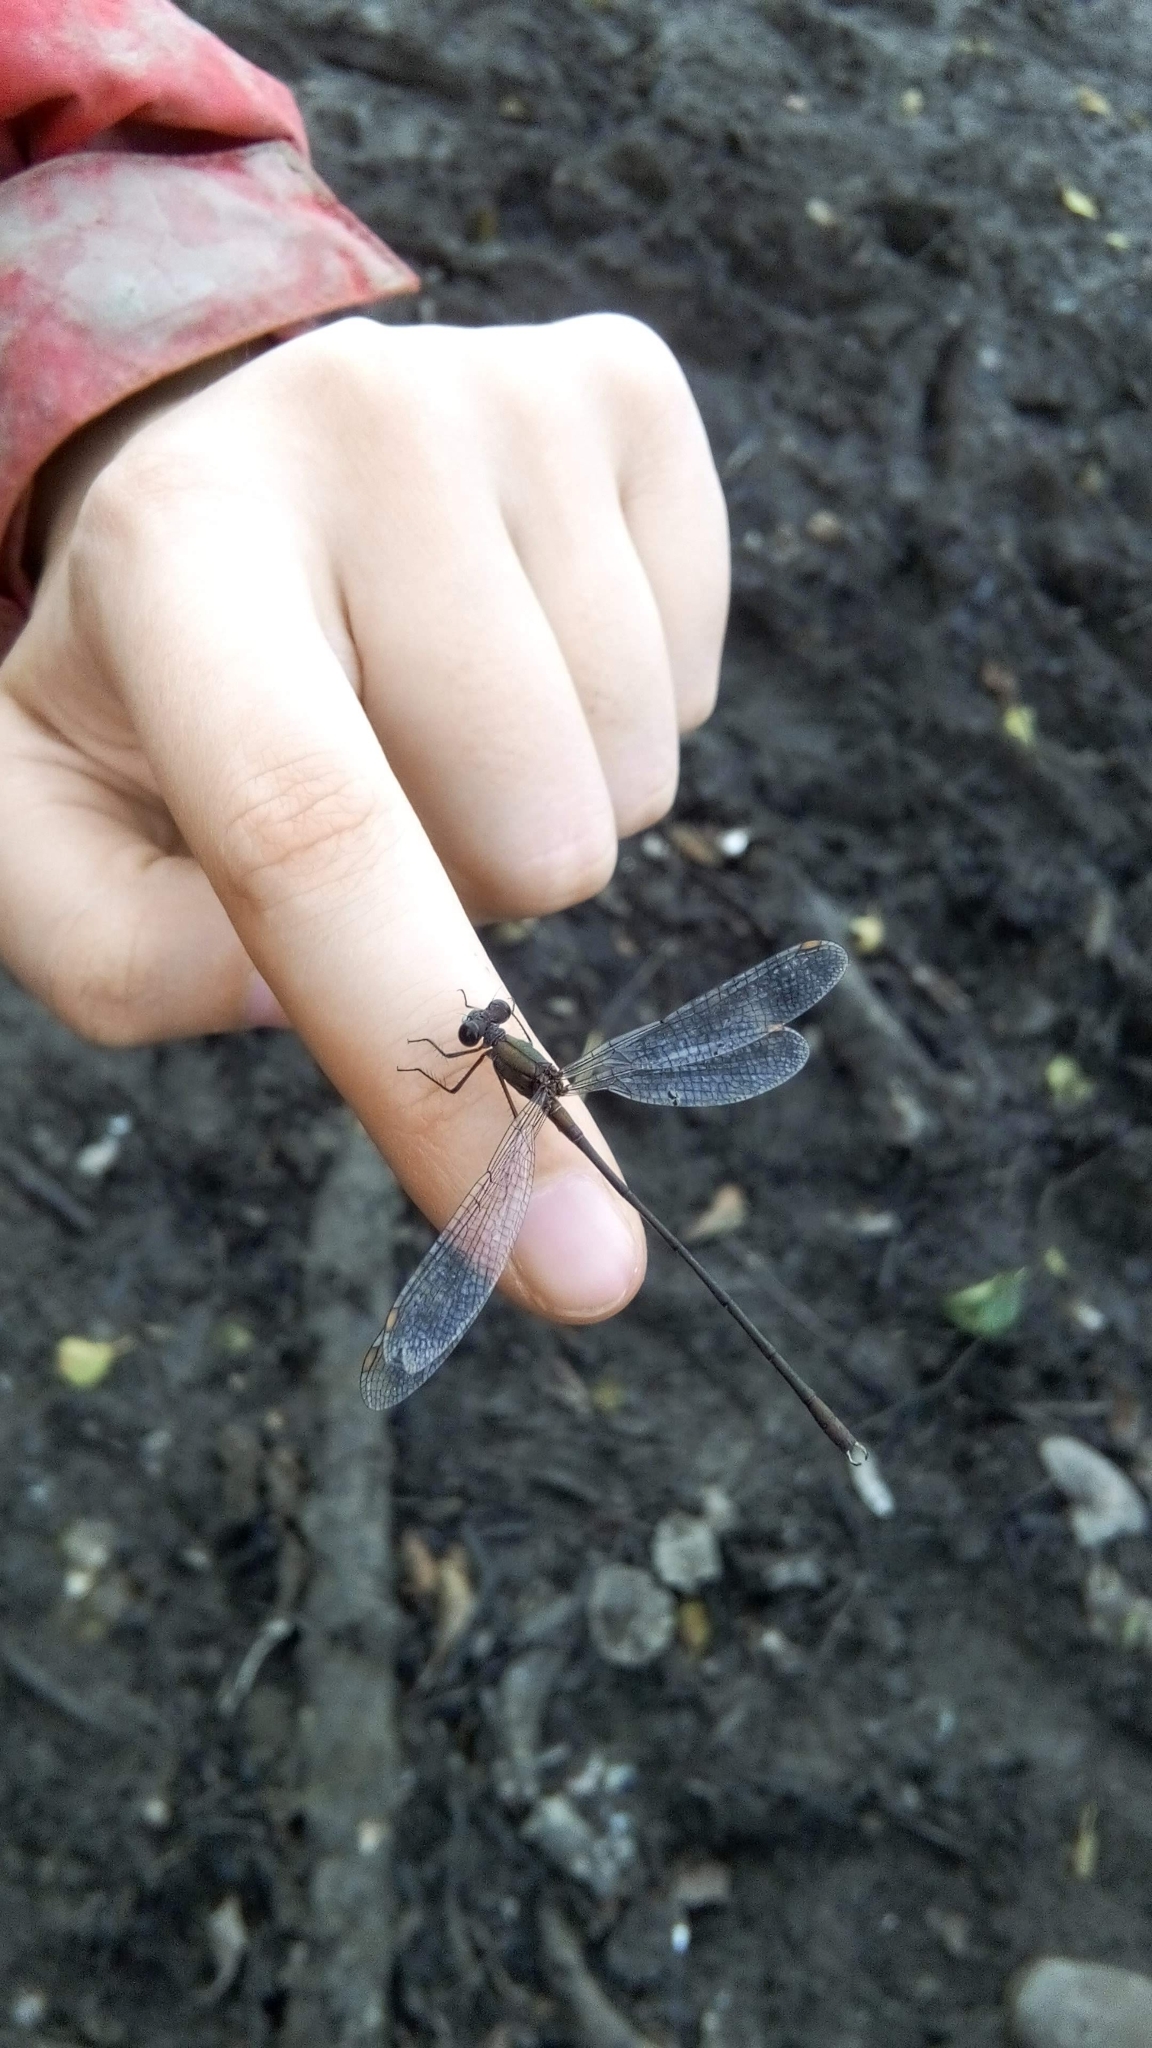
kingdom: Animalia
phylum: Arthropoda
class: Insecta
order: Odonata
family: Lestidae
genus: Chalcolestes
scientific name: Chalcolestes viridis
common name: Green emerald damselfly
